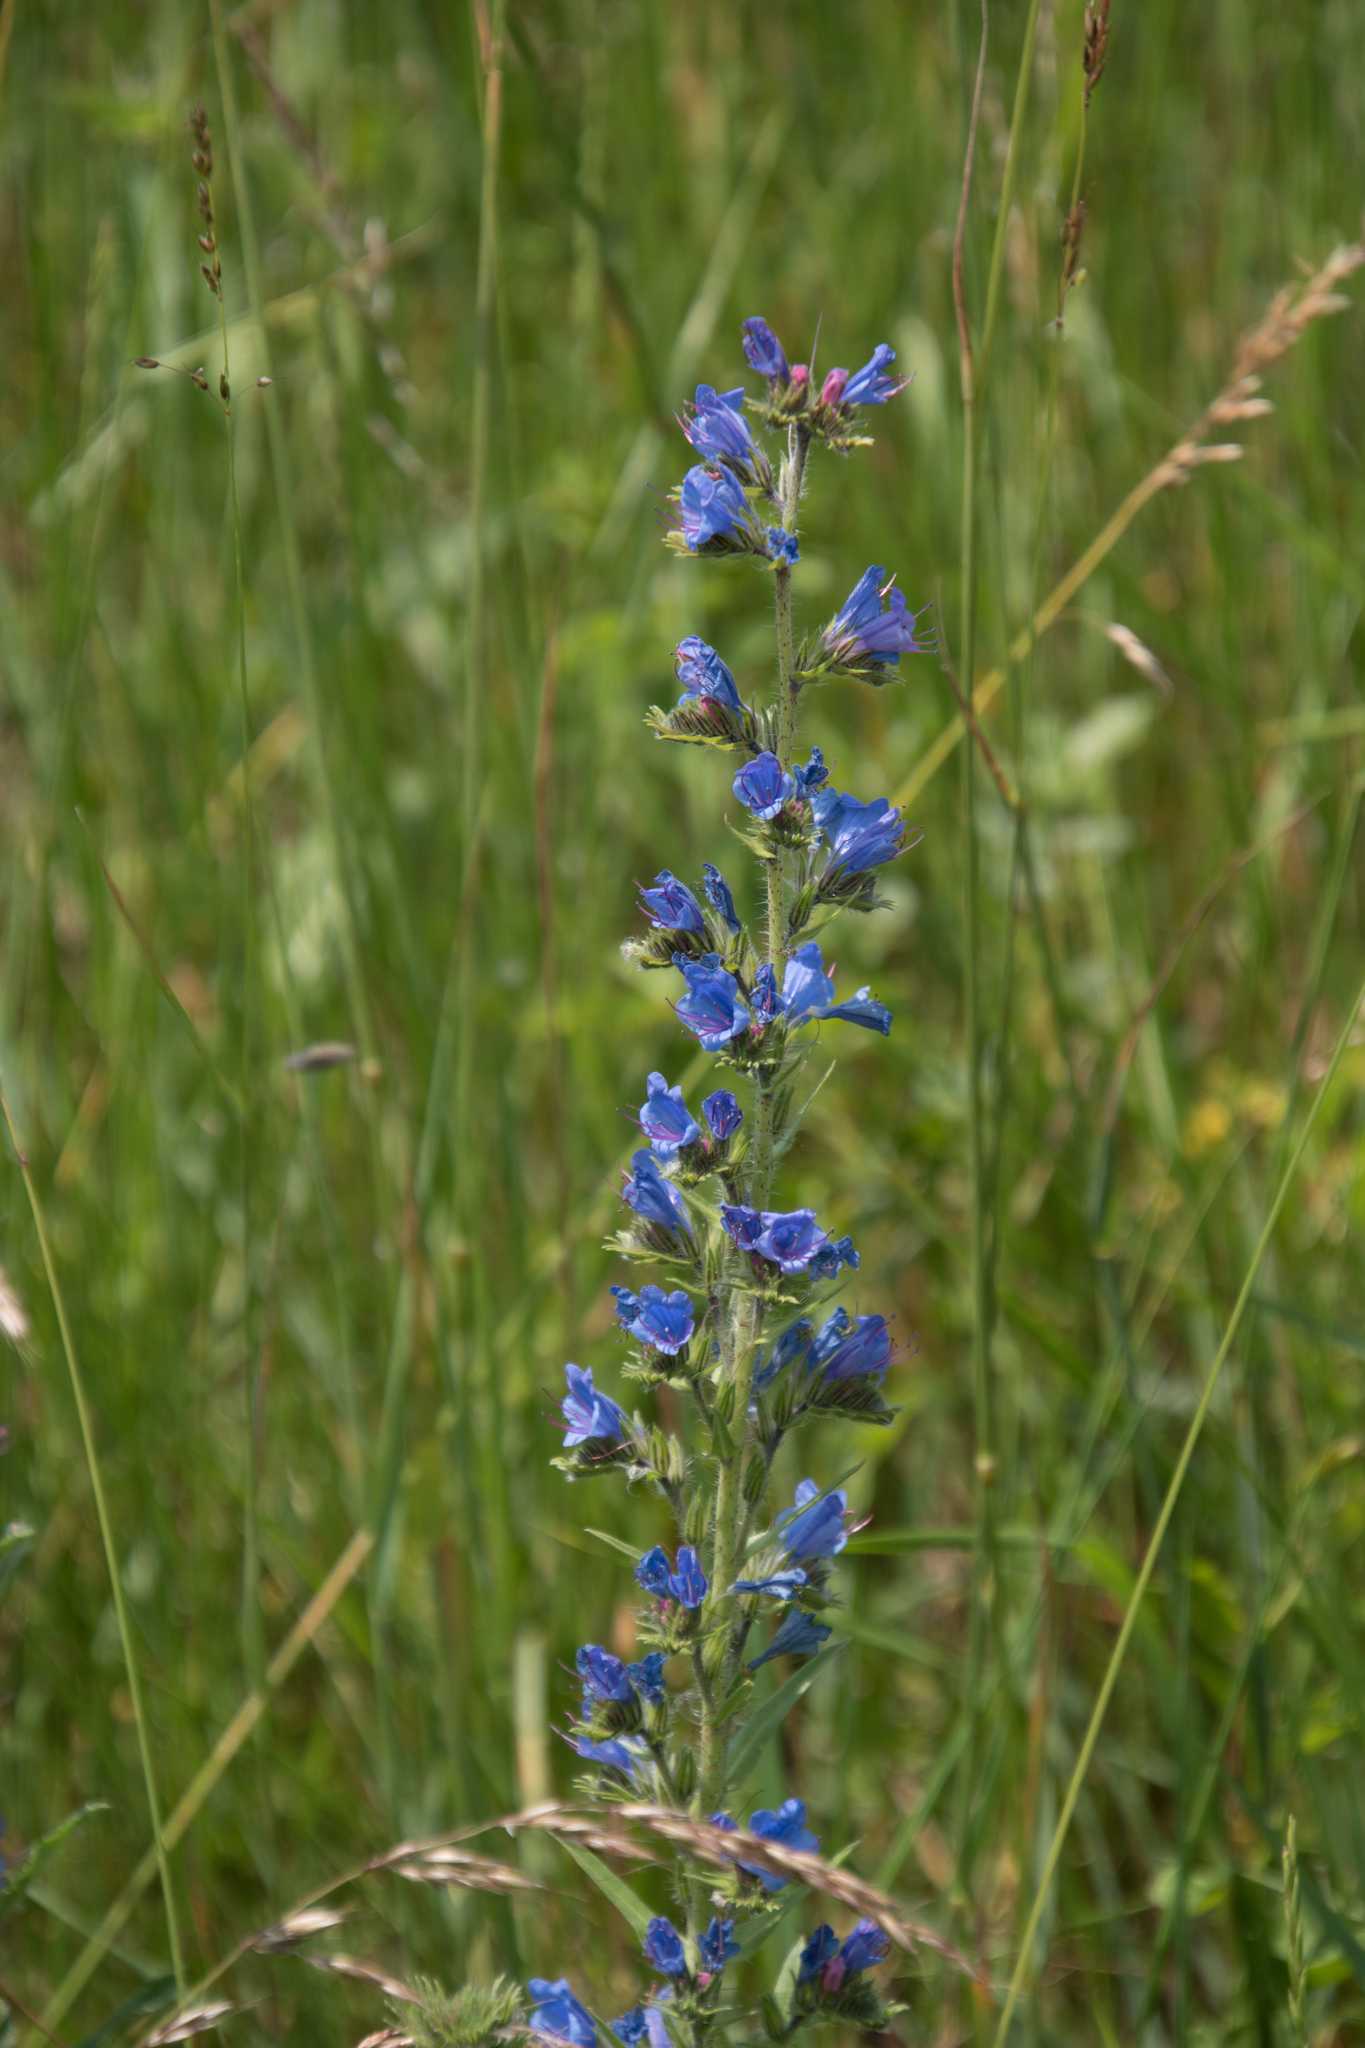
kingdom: Plantae
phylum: Tracheophyta
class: Magnoliopsida
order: Boraginales
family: Boraginaceae
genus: Echium
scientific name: Echium vulgare
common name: Common viper's bugloss
